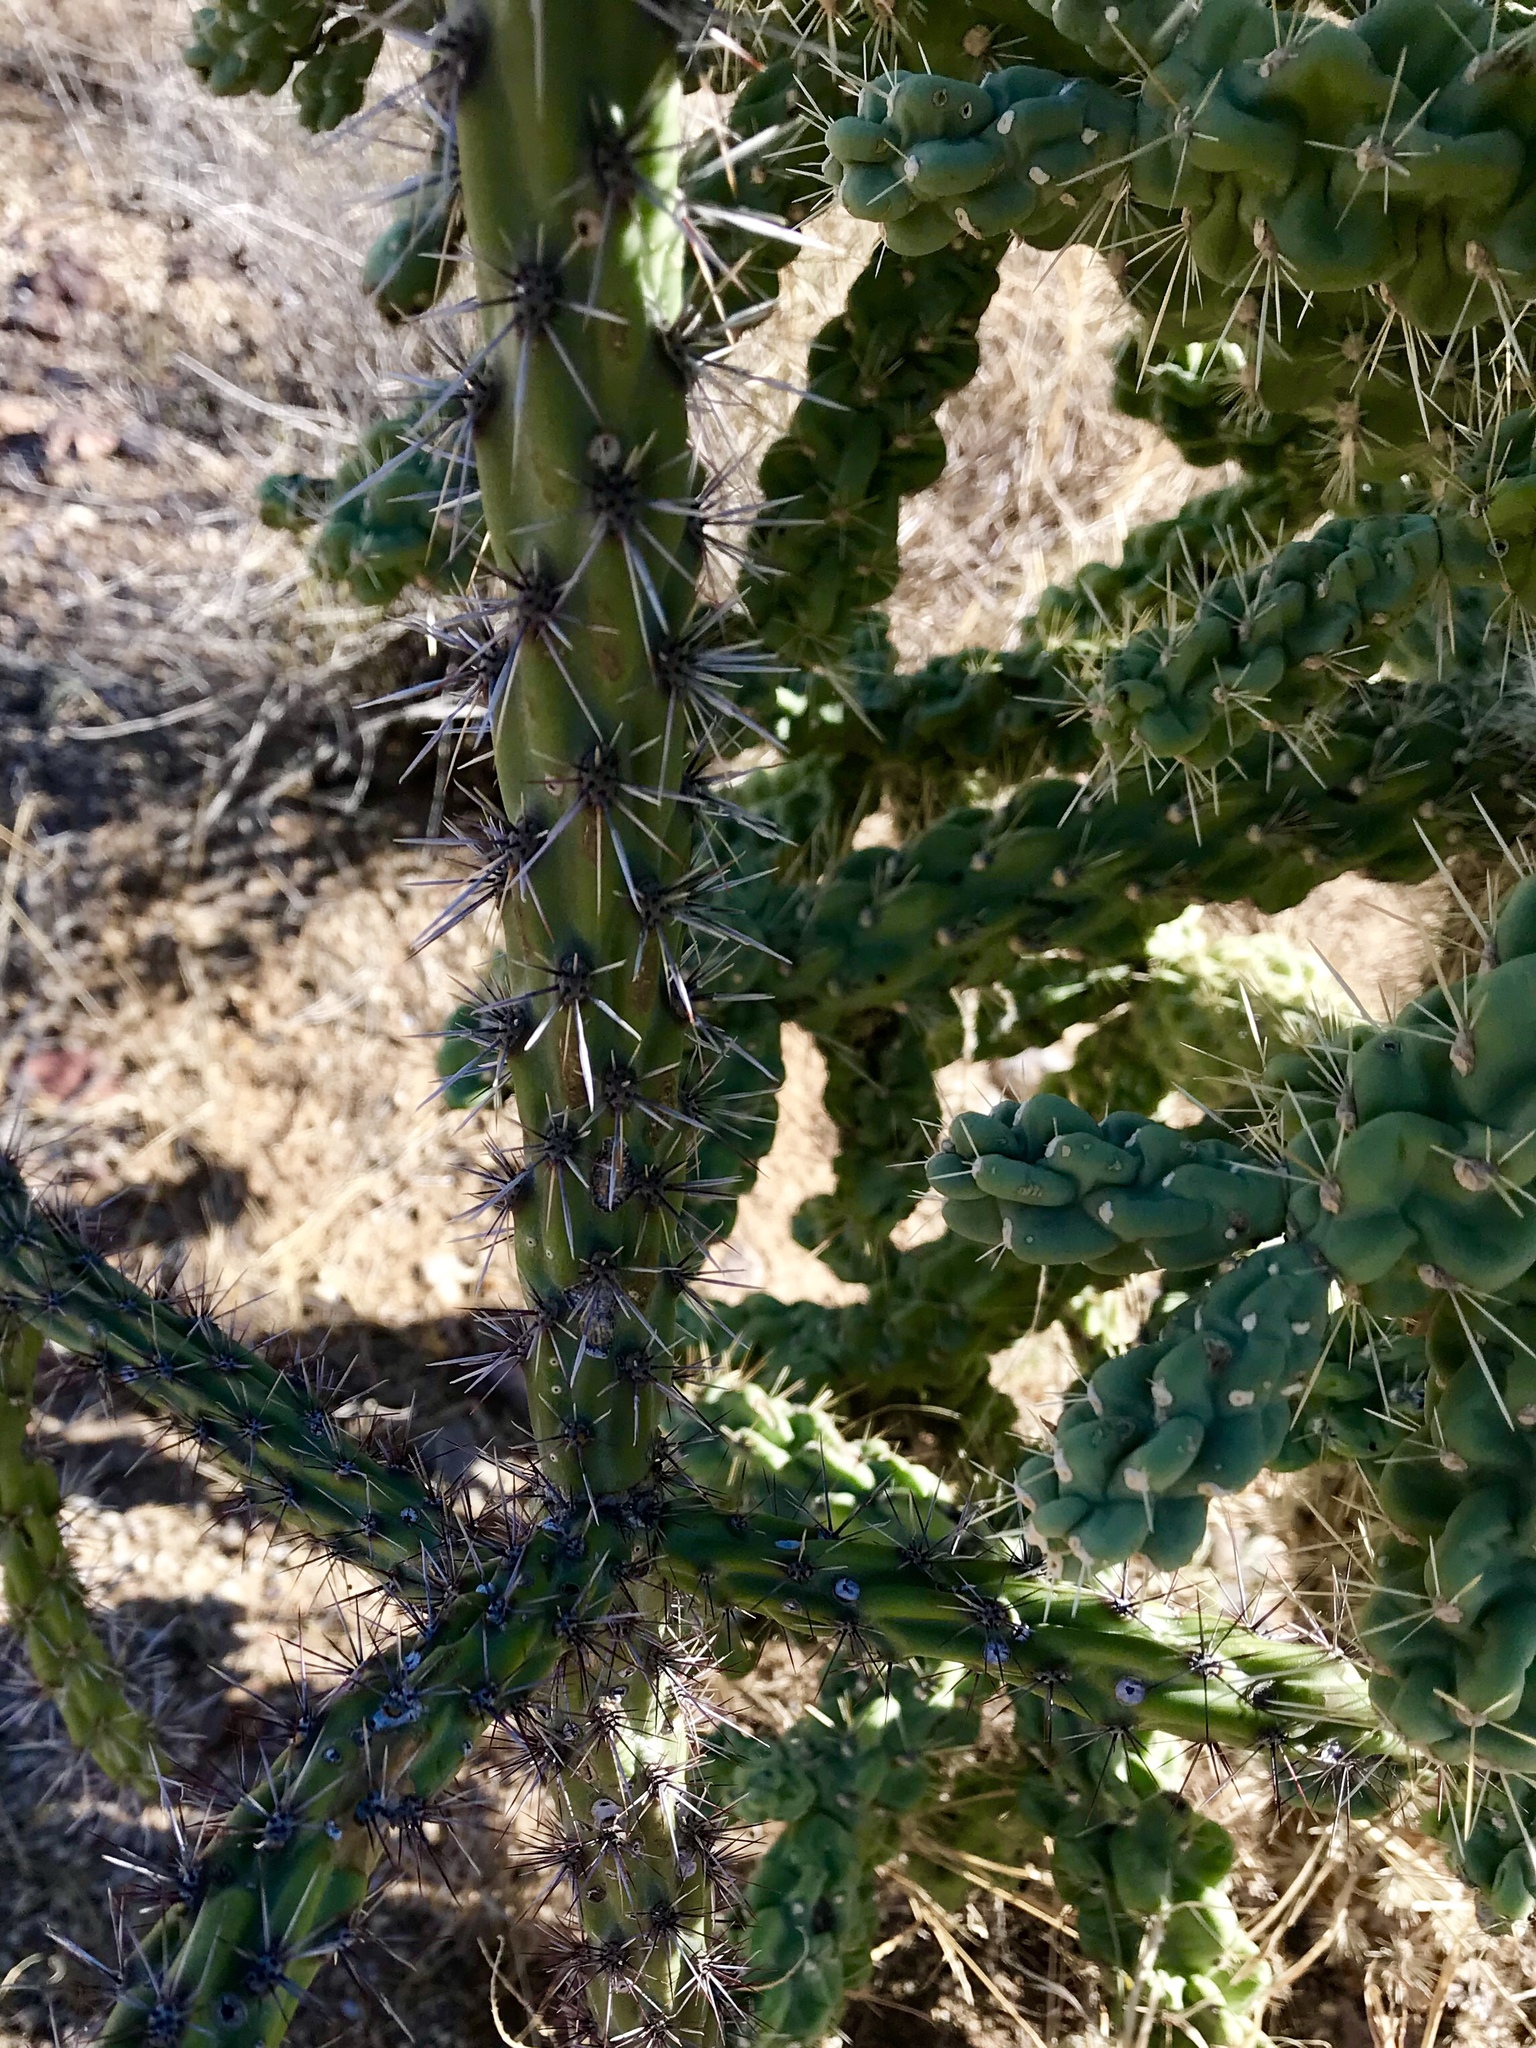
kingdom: Plantae
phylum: Tracheophyta
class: Magnoliopsida
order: Caryophyllales
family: Cactaceae
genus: Cylindropuntia
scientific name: Cylindropuntia fulgida
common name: Jumping cholla
